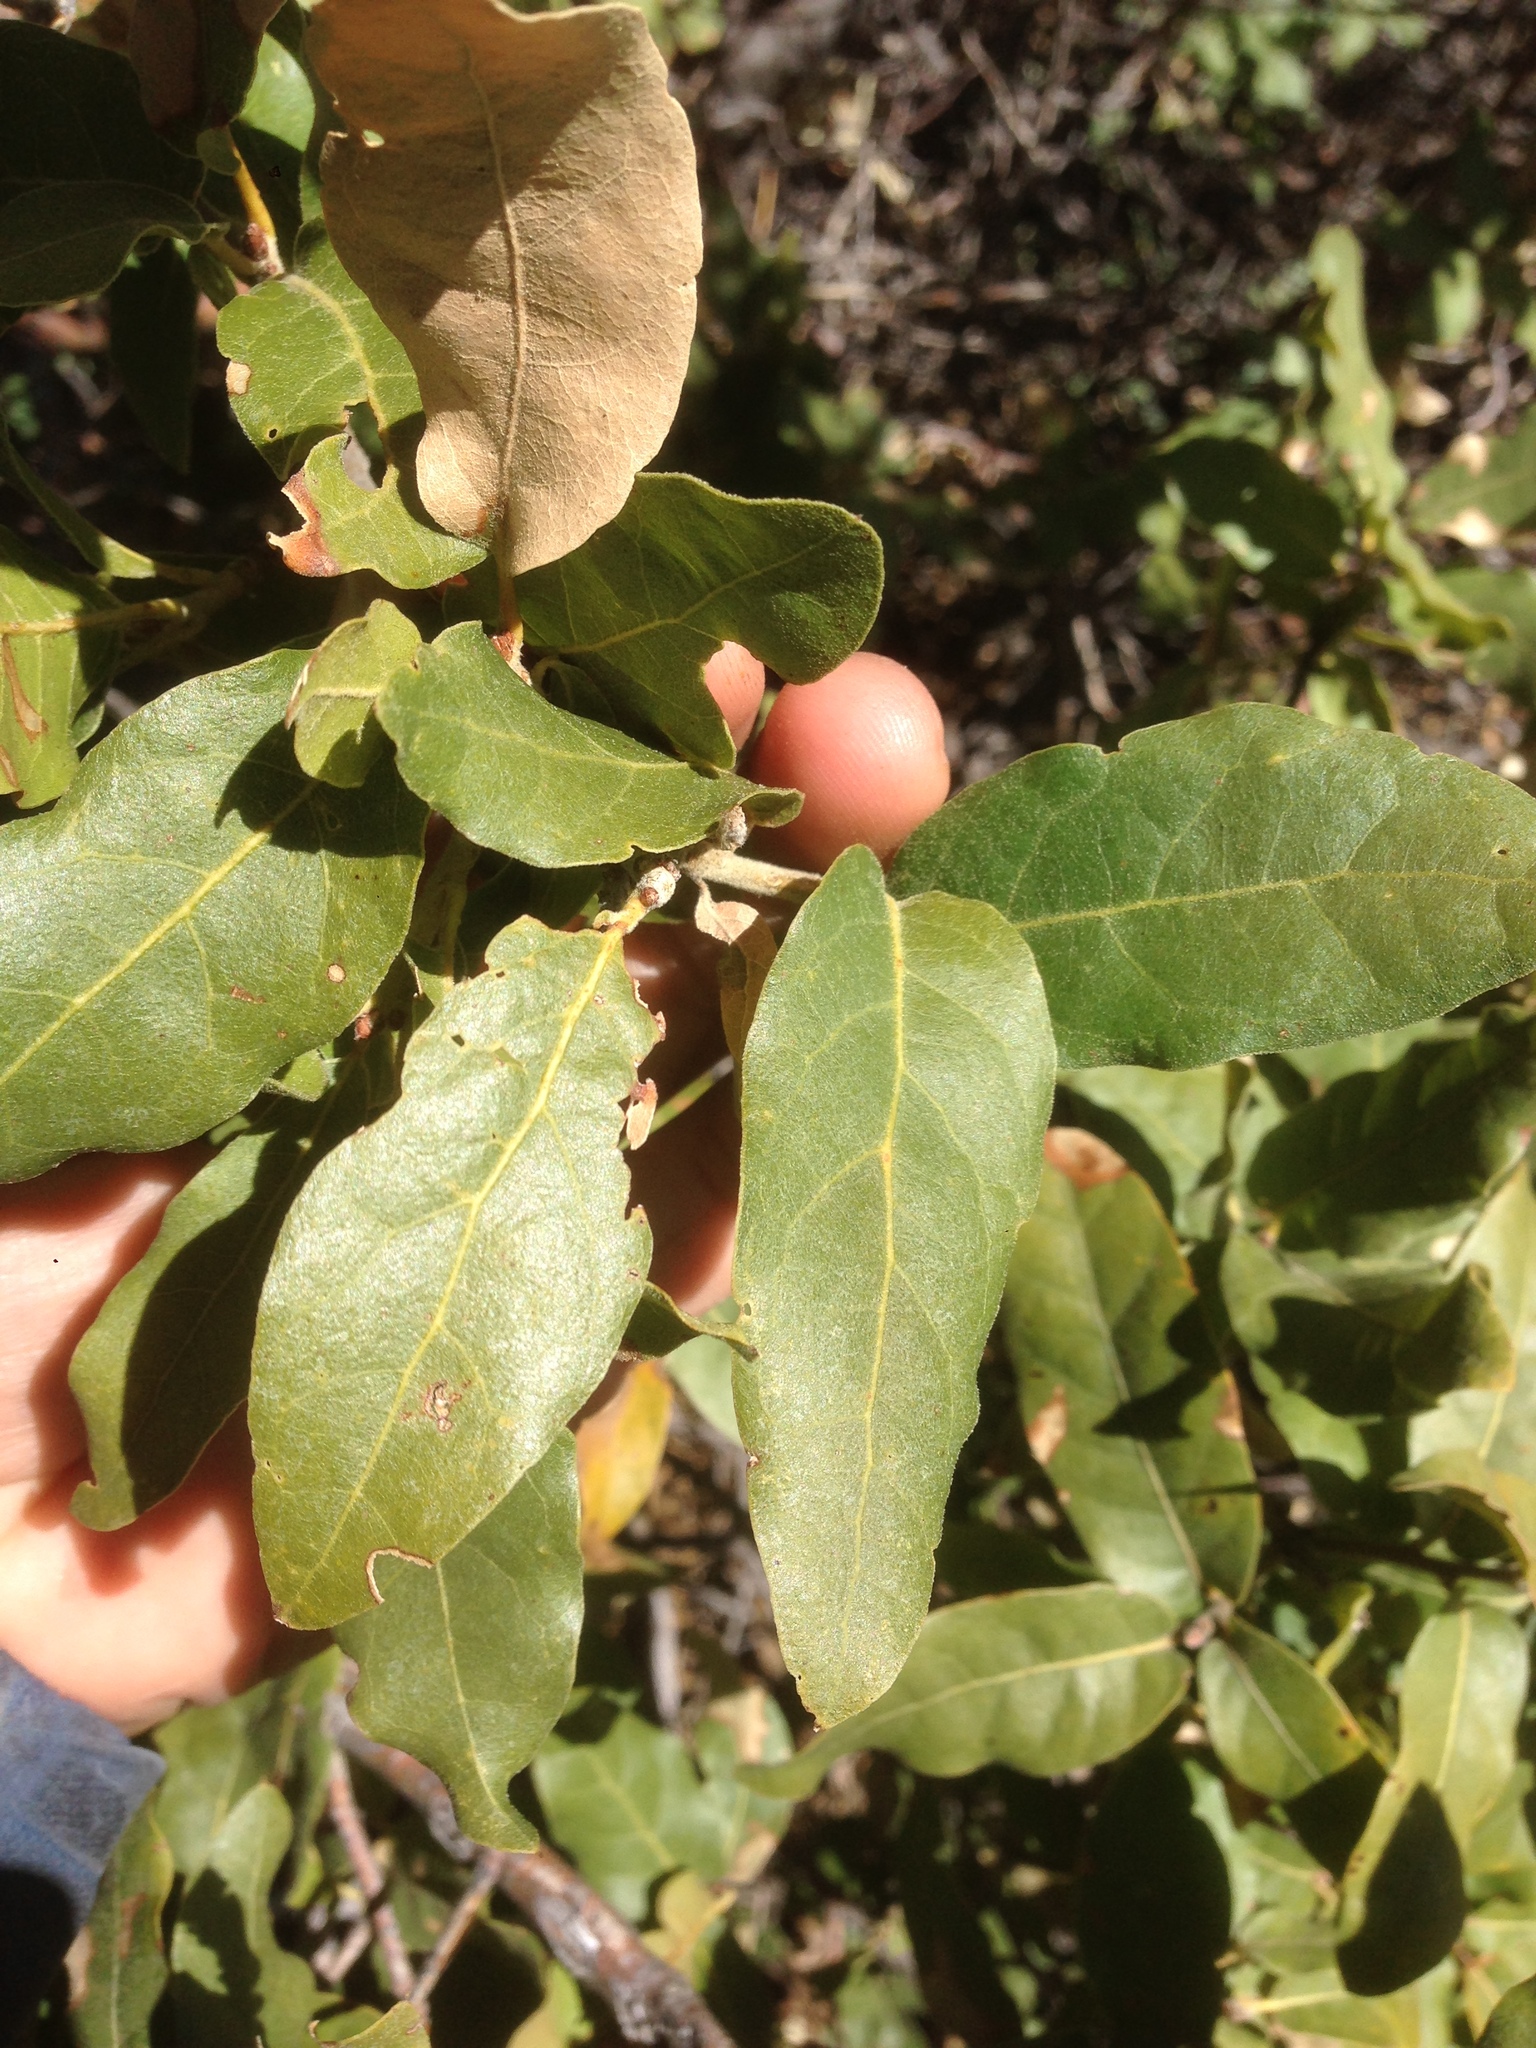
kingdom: Plantae
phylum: Tracheophyta
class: Magnoliopsida
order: Fagales
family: Fagaceae
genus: Quercus
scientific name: Quercus peninsularis
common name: Pacific emory oak
